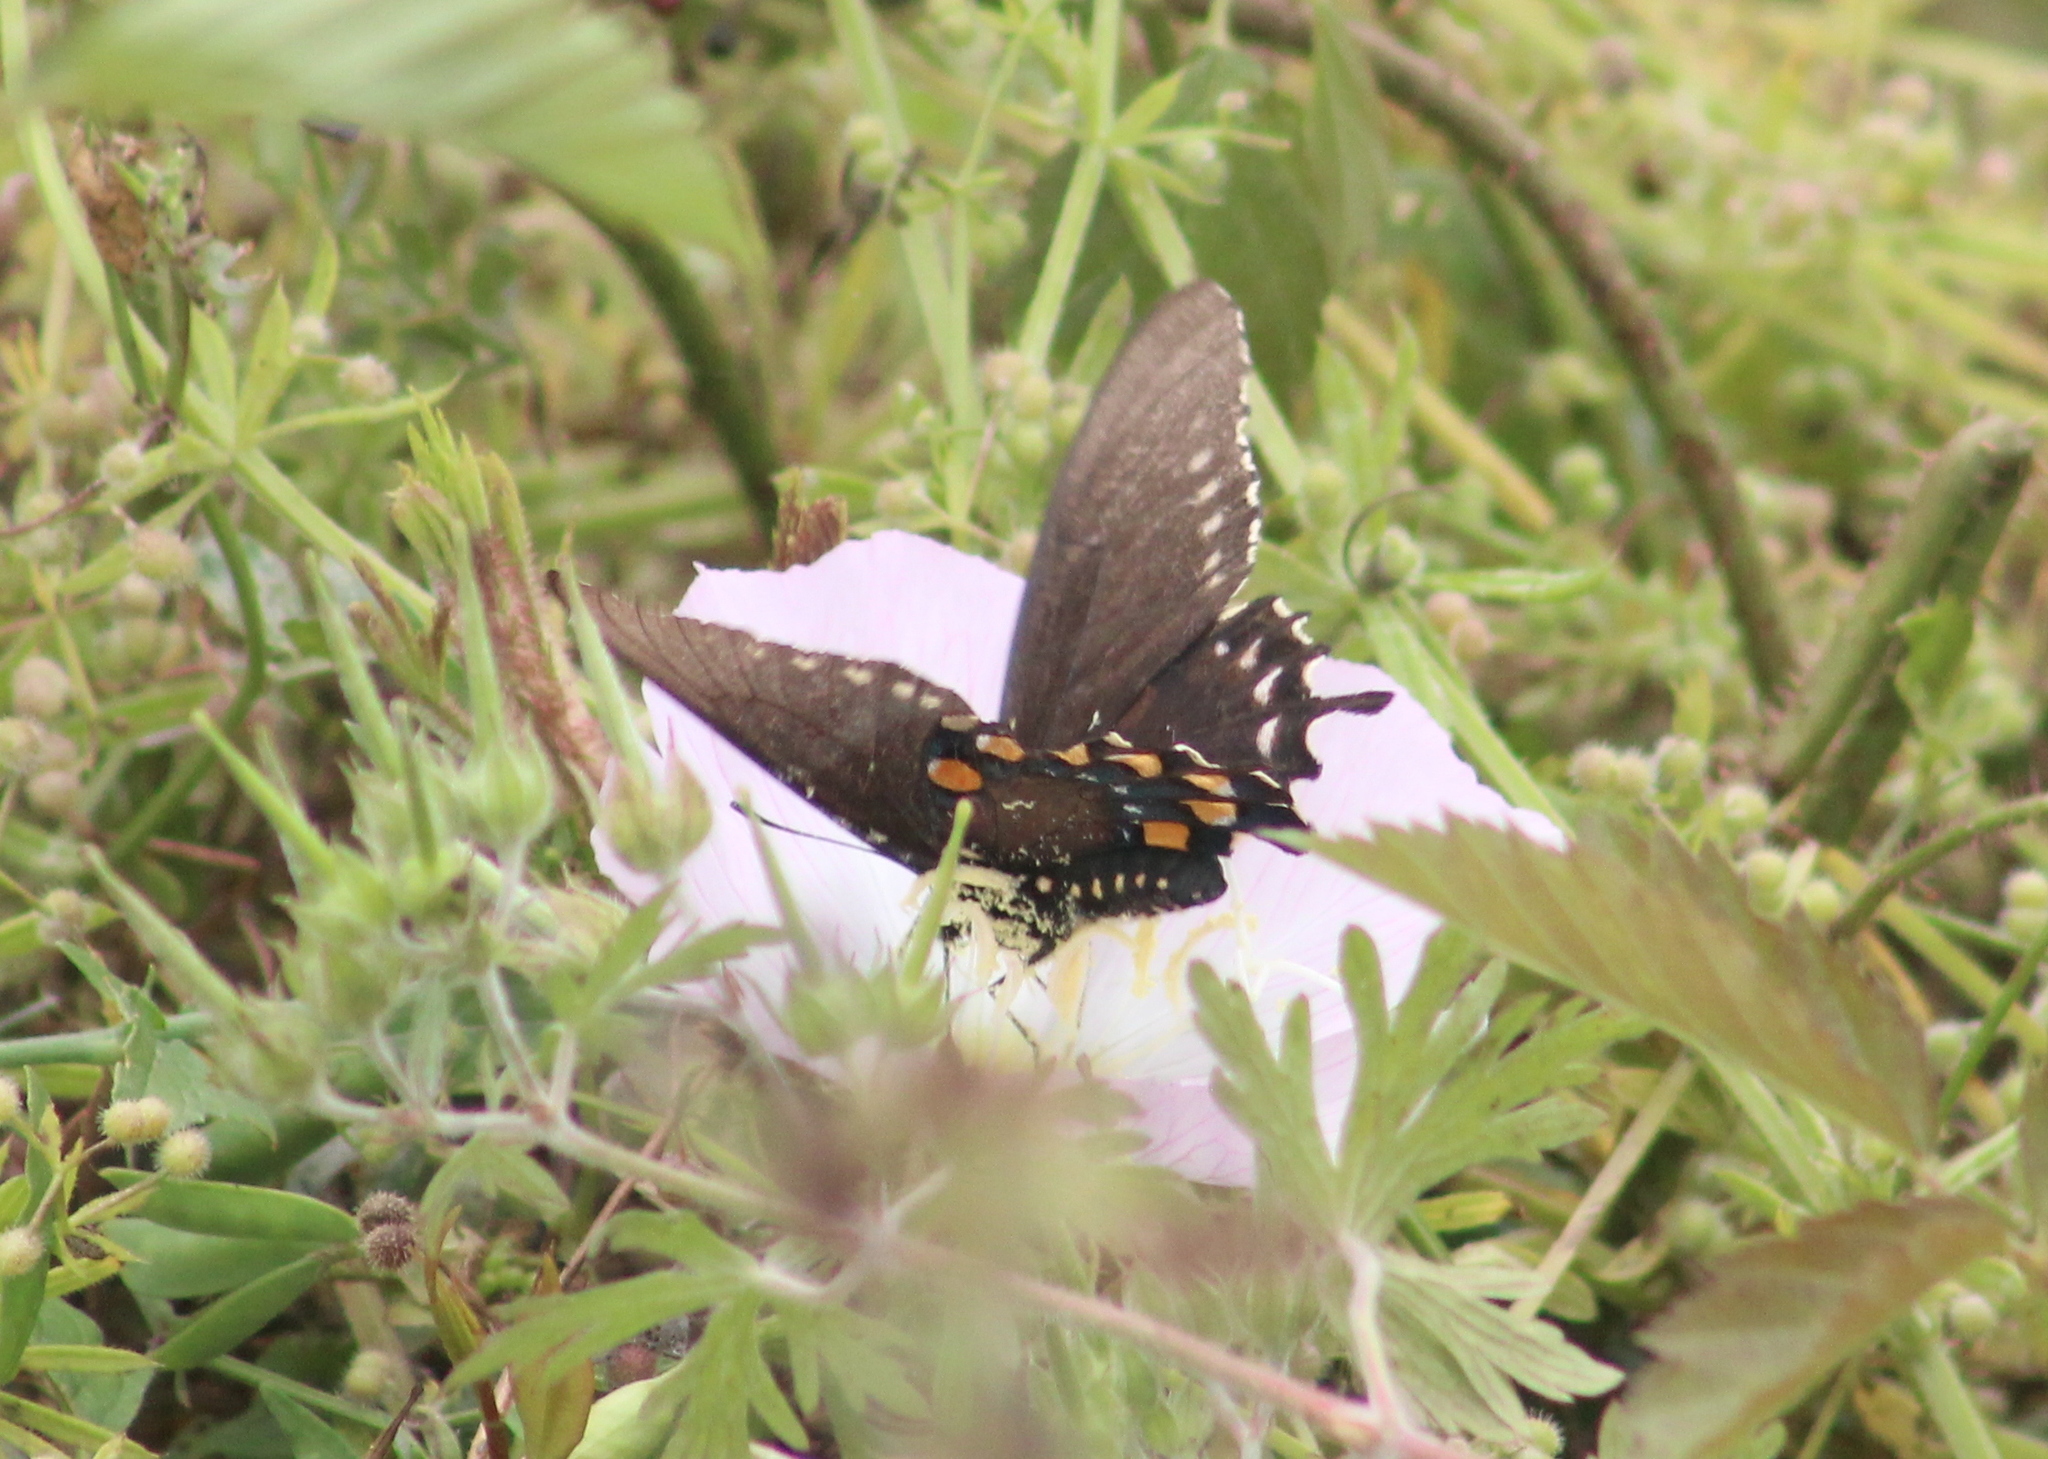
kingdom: Animalia
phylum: Arthropoda
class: Insecta
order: Lepidoptera
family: Papilionidae
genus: Battus
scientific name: Battus philenor
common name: Pipevine swallowtail
